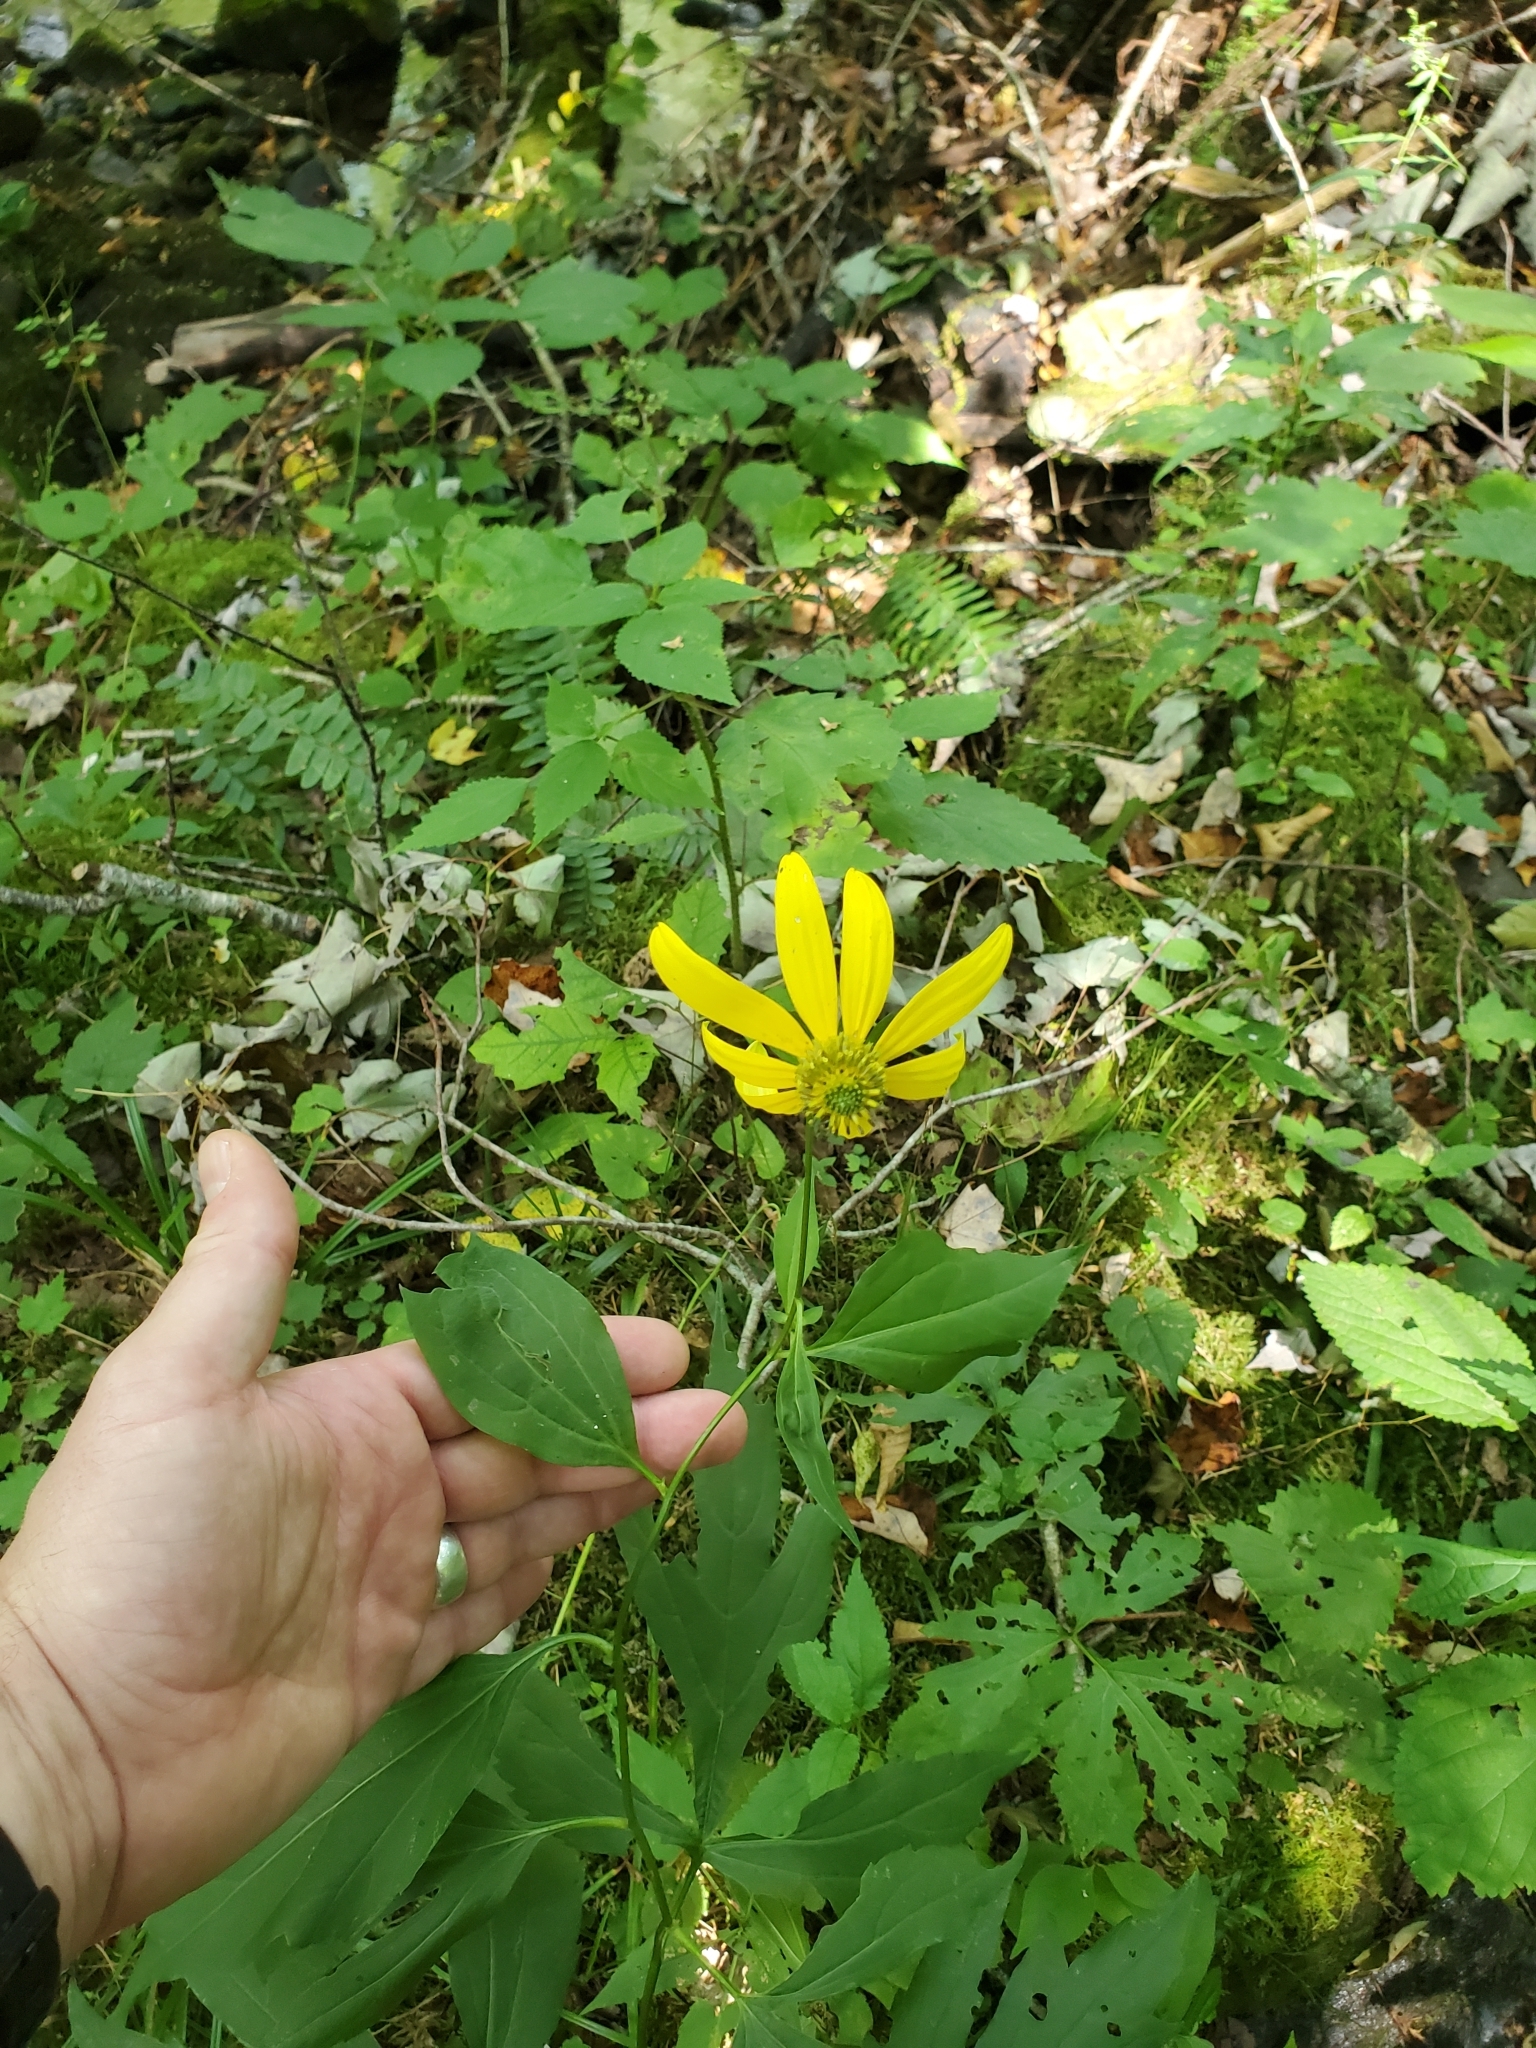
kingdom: Plantae
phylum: Tracheophyta
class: Magnoliopsida
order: Asterales
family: Asteraceae
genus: Rudbeckia
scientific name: Rudbeckia laciniata
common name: Coneflower
